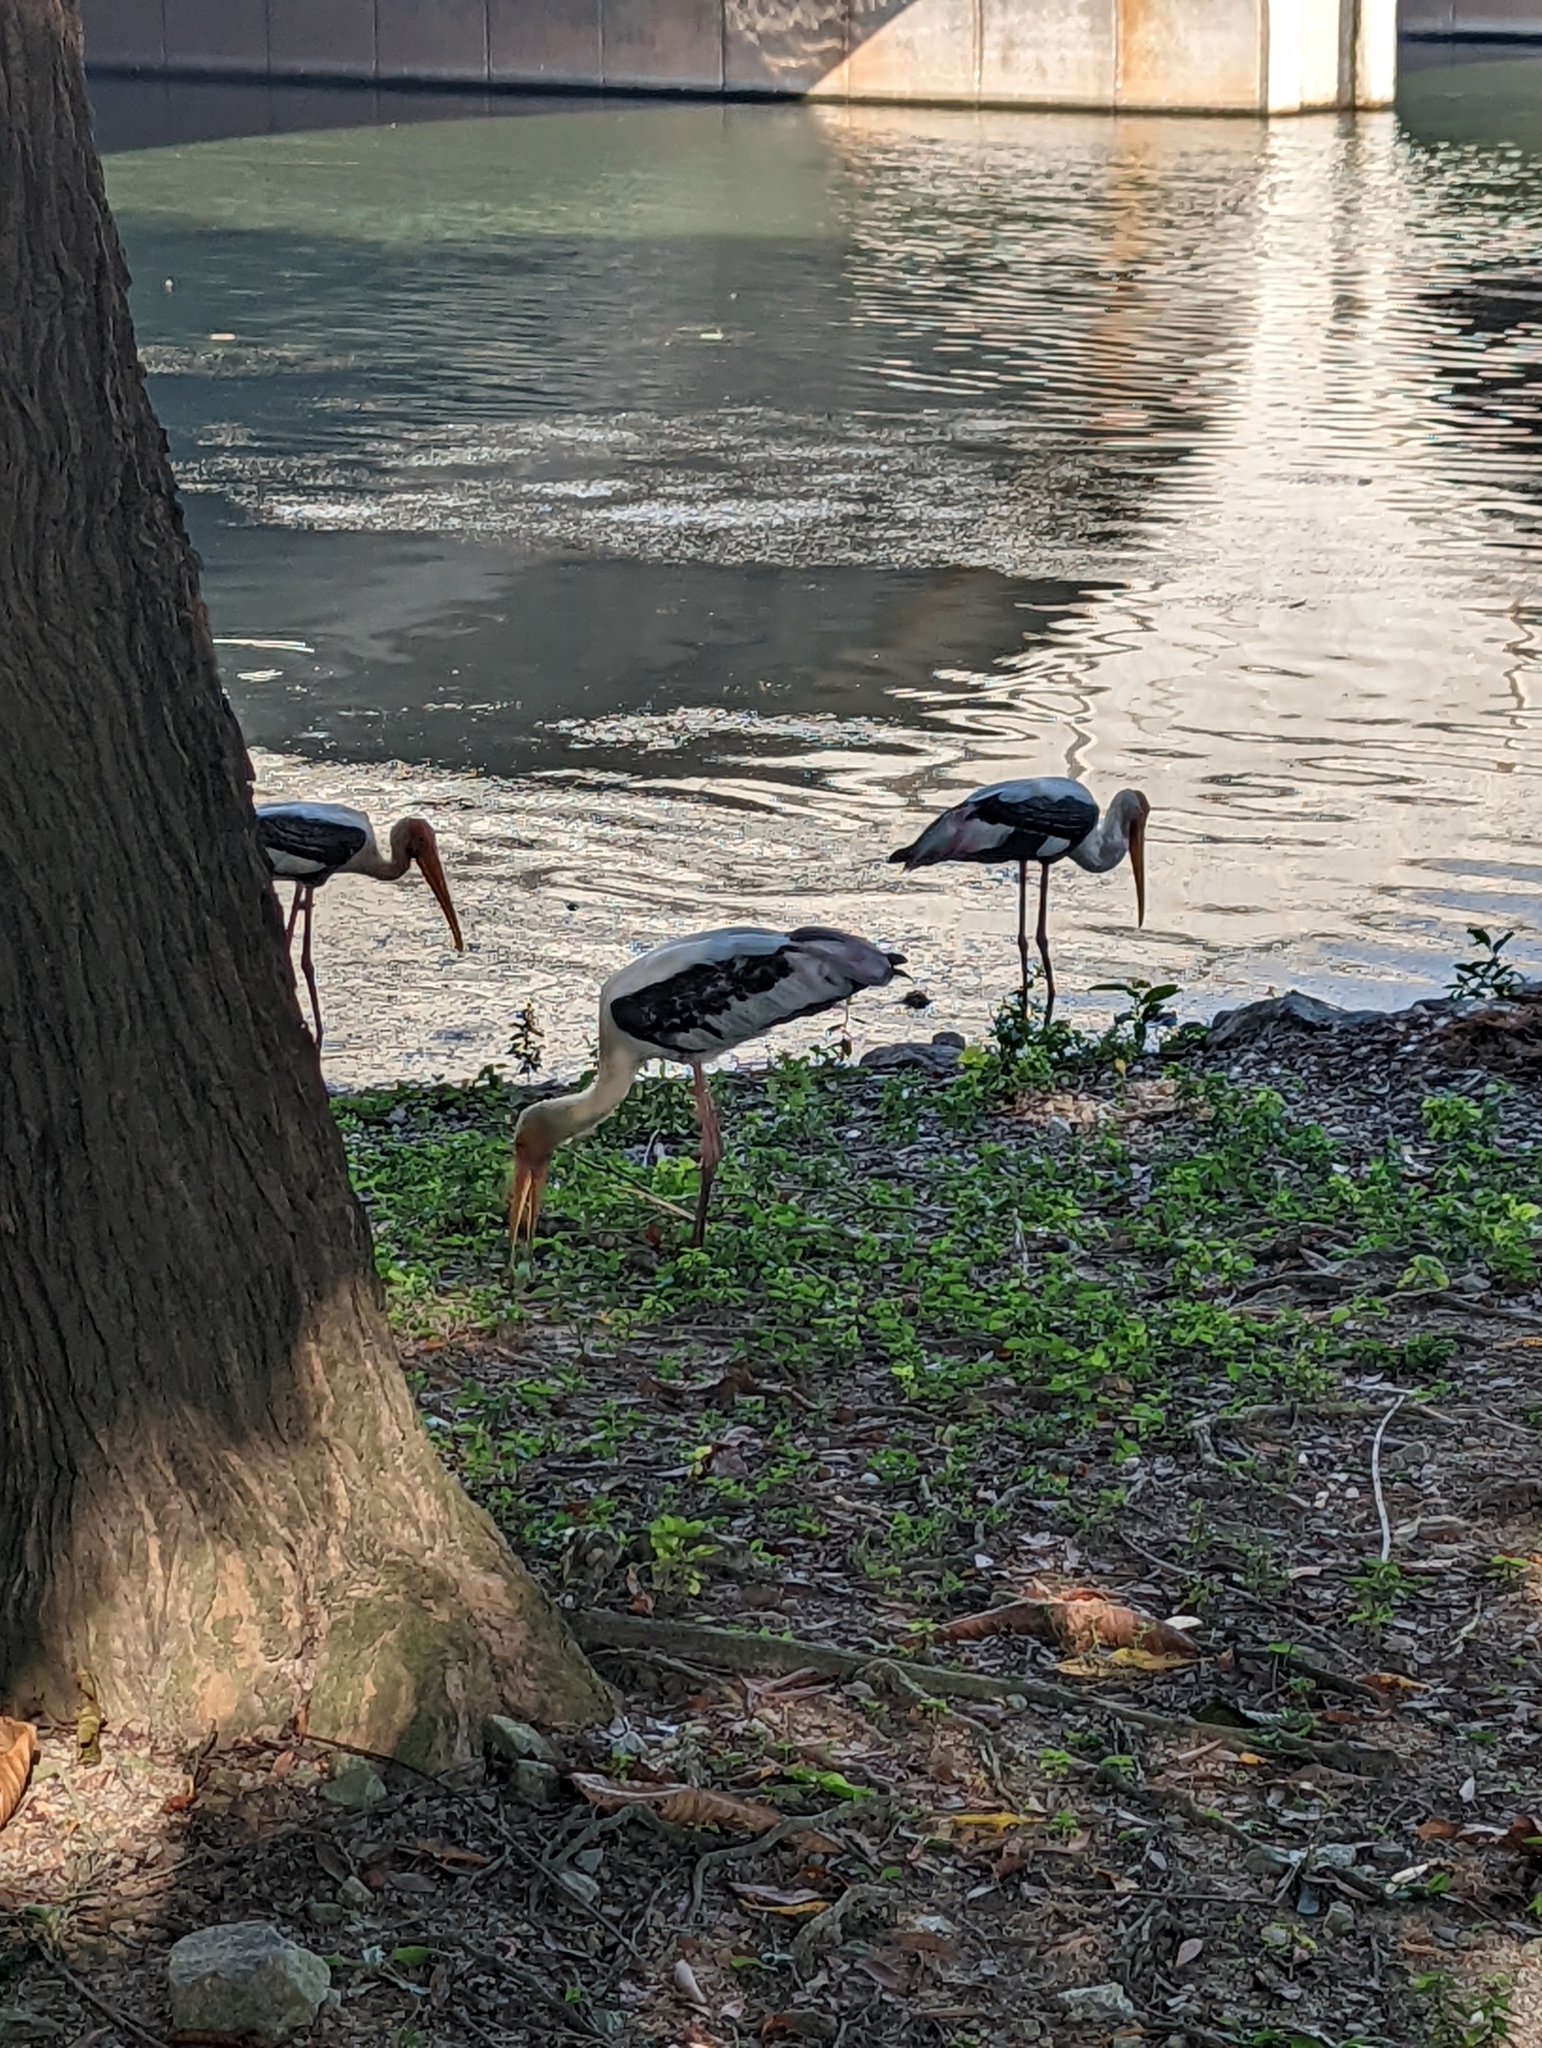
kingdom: Animalia
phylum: Chordata
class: Aves
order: Ciconiiformes
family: Ciconiidae
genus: Mycteria
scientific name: Mycteria leucocephala
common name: Painted stork
